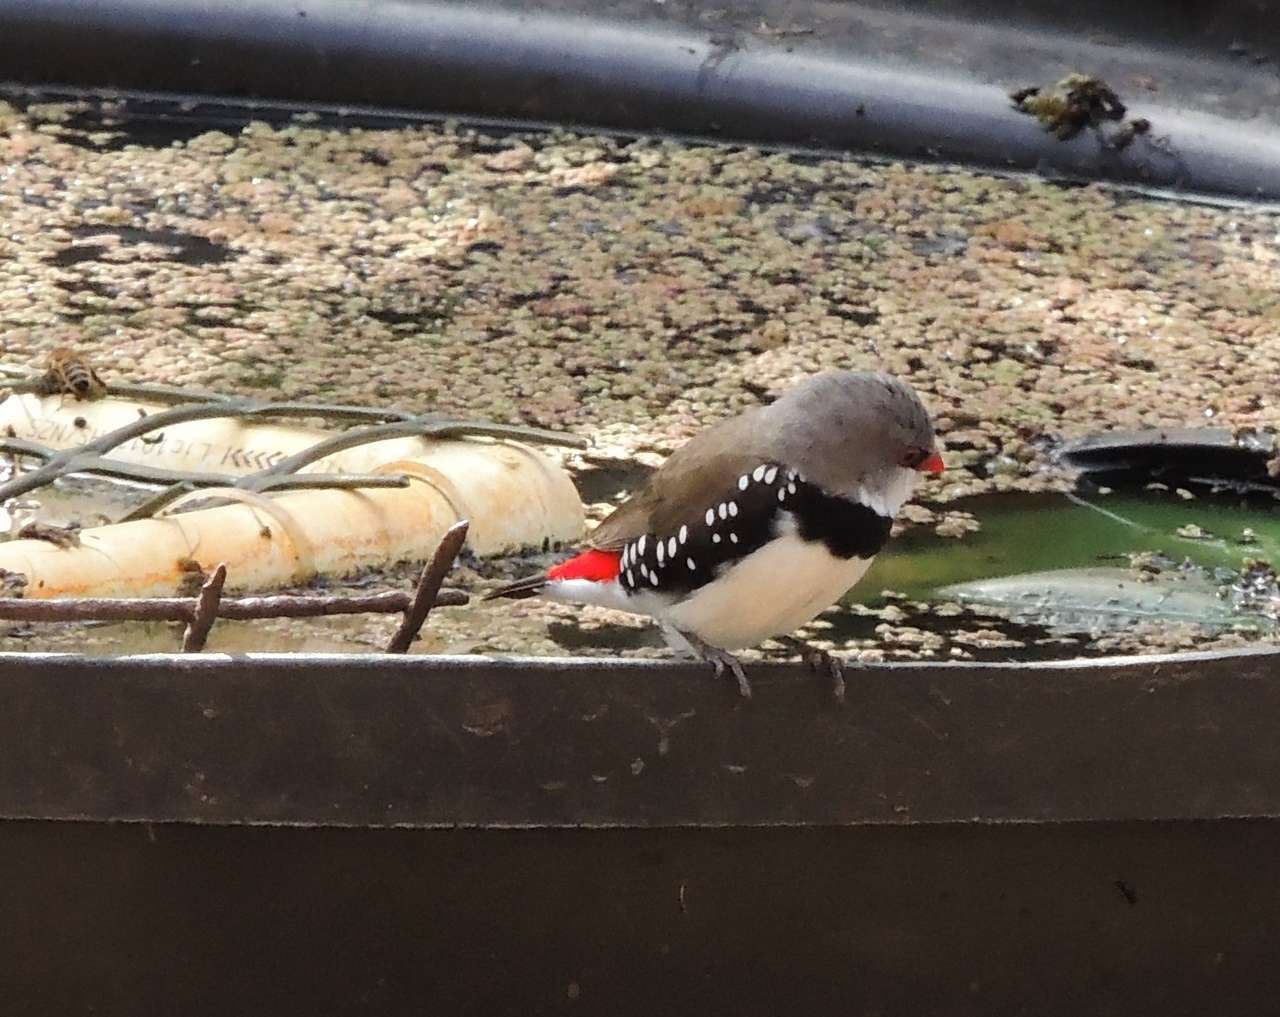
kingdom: Animalia
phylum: Chordata
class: Aves
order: Passeriformes
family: Estrildidae
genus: Stagonopleura
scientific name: Stagonopleura guttata
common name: Diamond firetail
